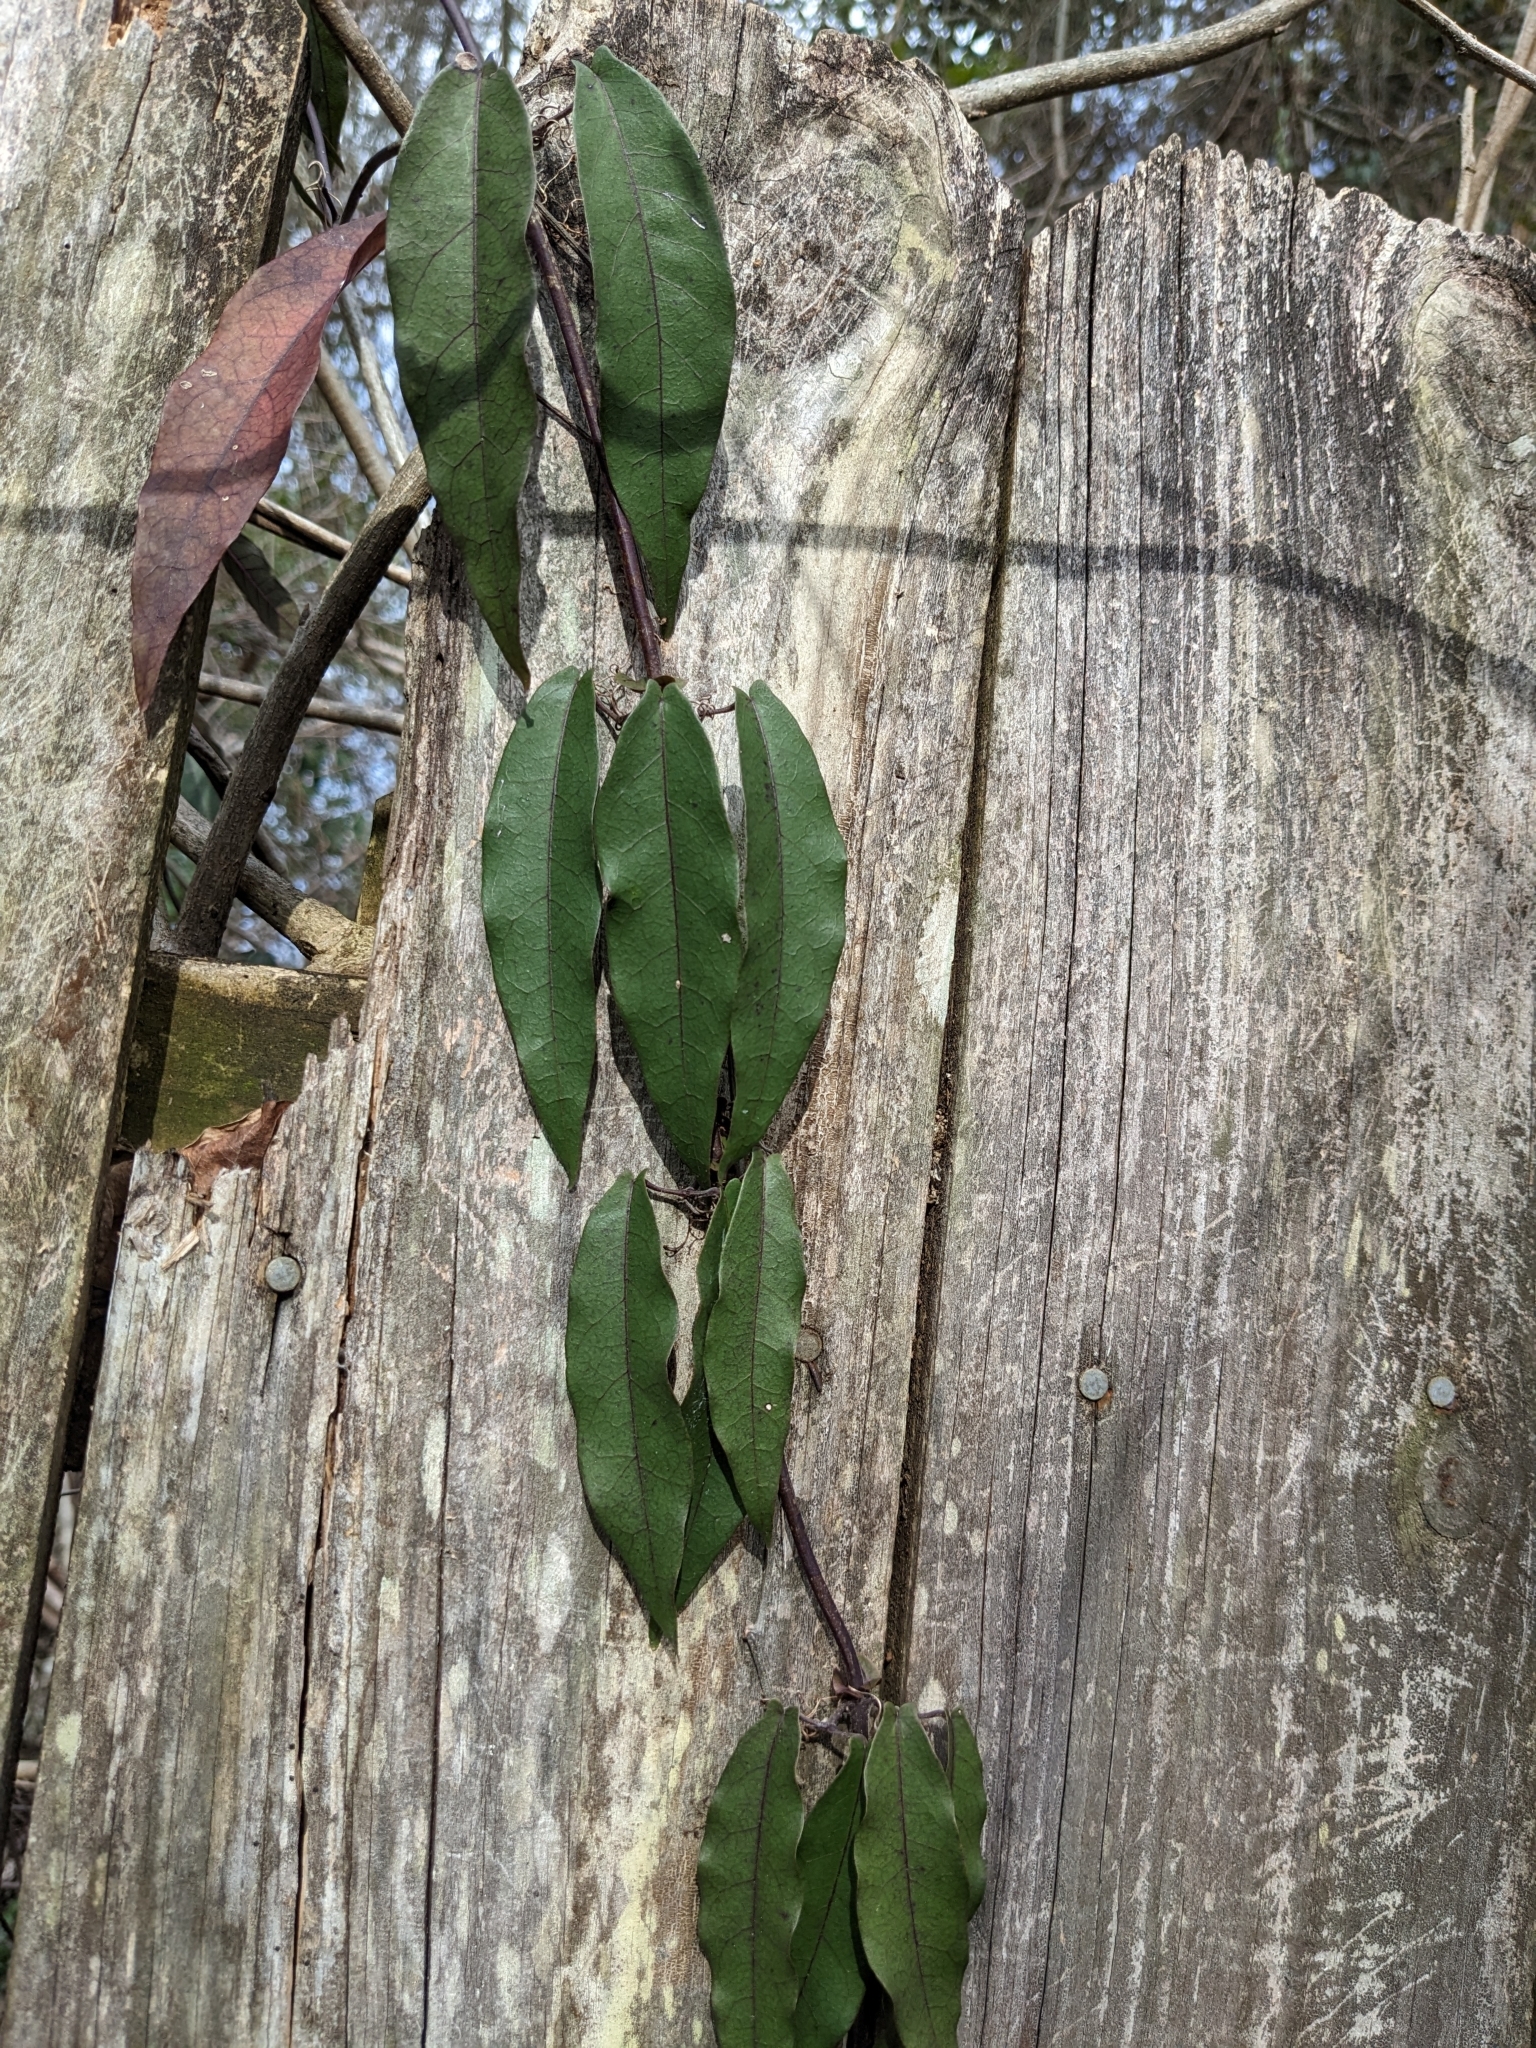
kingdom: Plantae
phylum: Tracheophyta
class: Magnoliopsida
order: Lamiales
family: Bignoniaceae
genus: Bignonia
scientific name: Bignonia capreolata
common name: Crossvine
